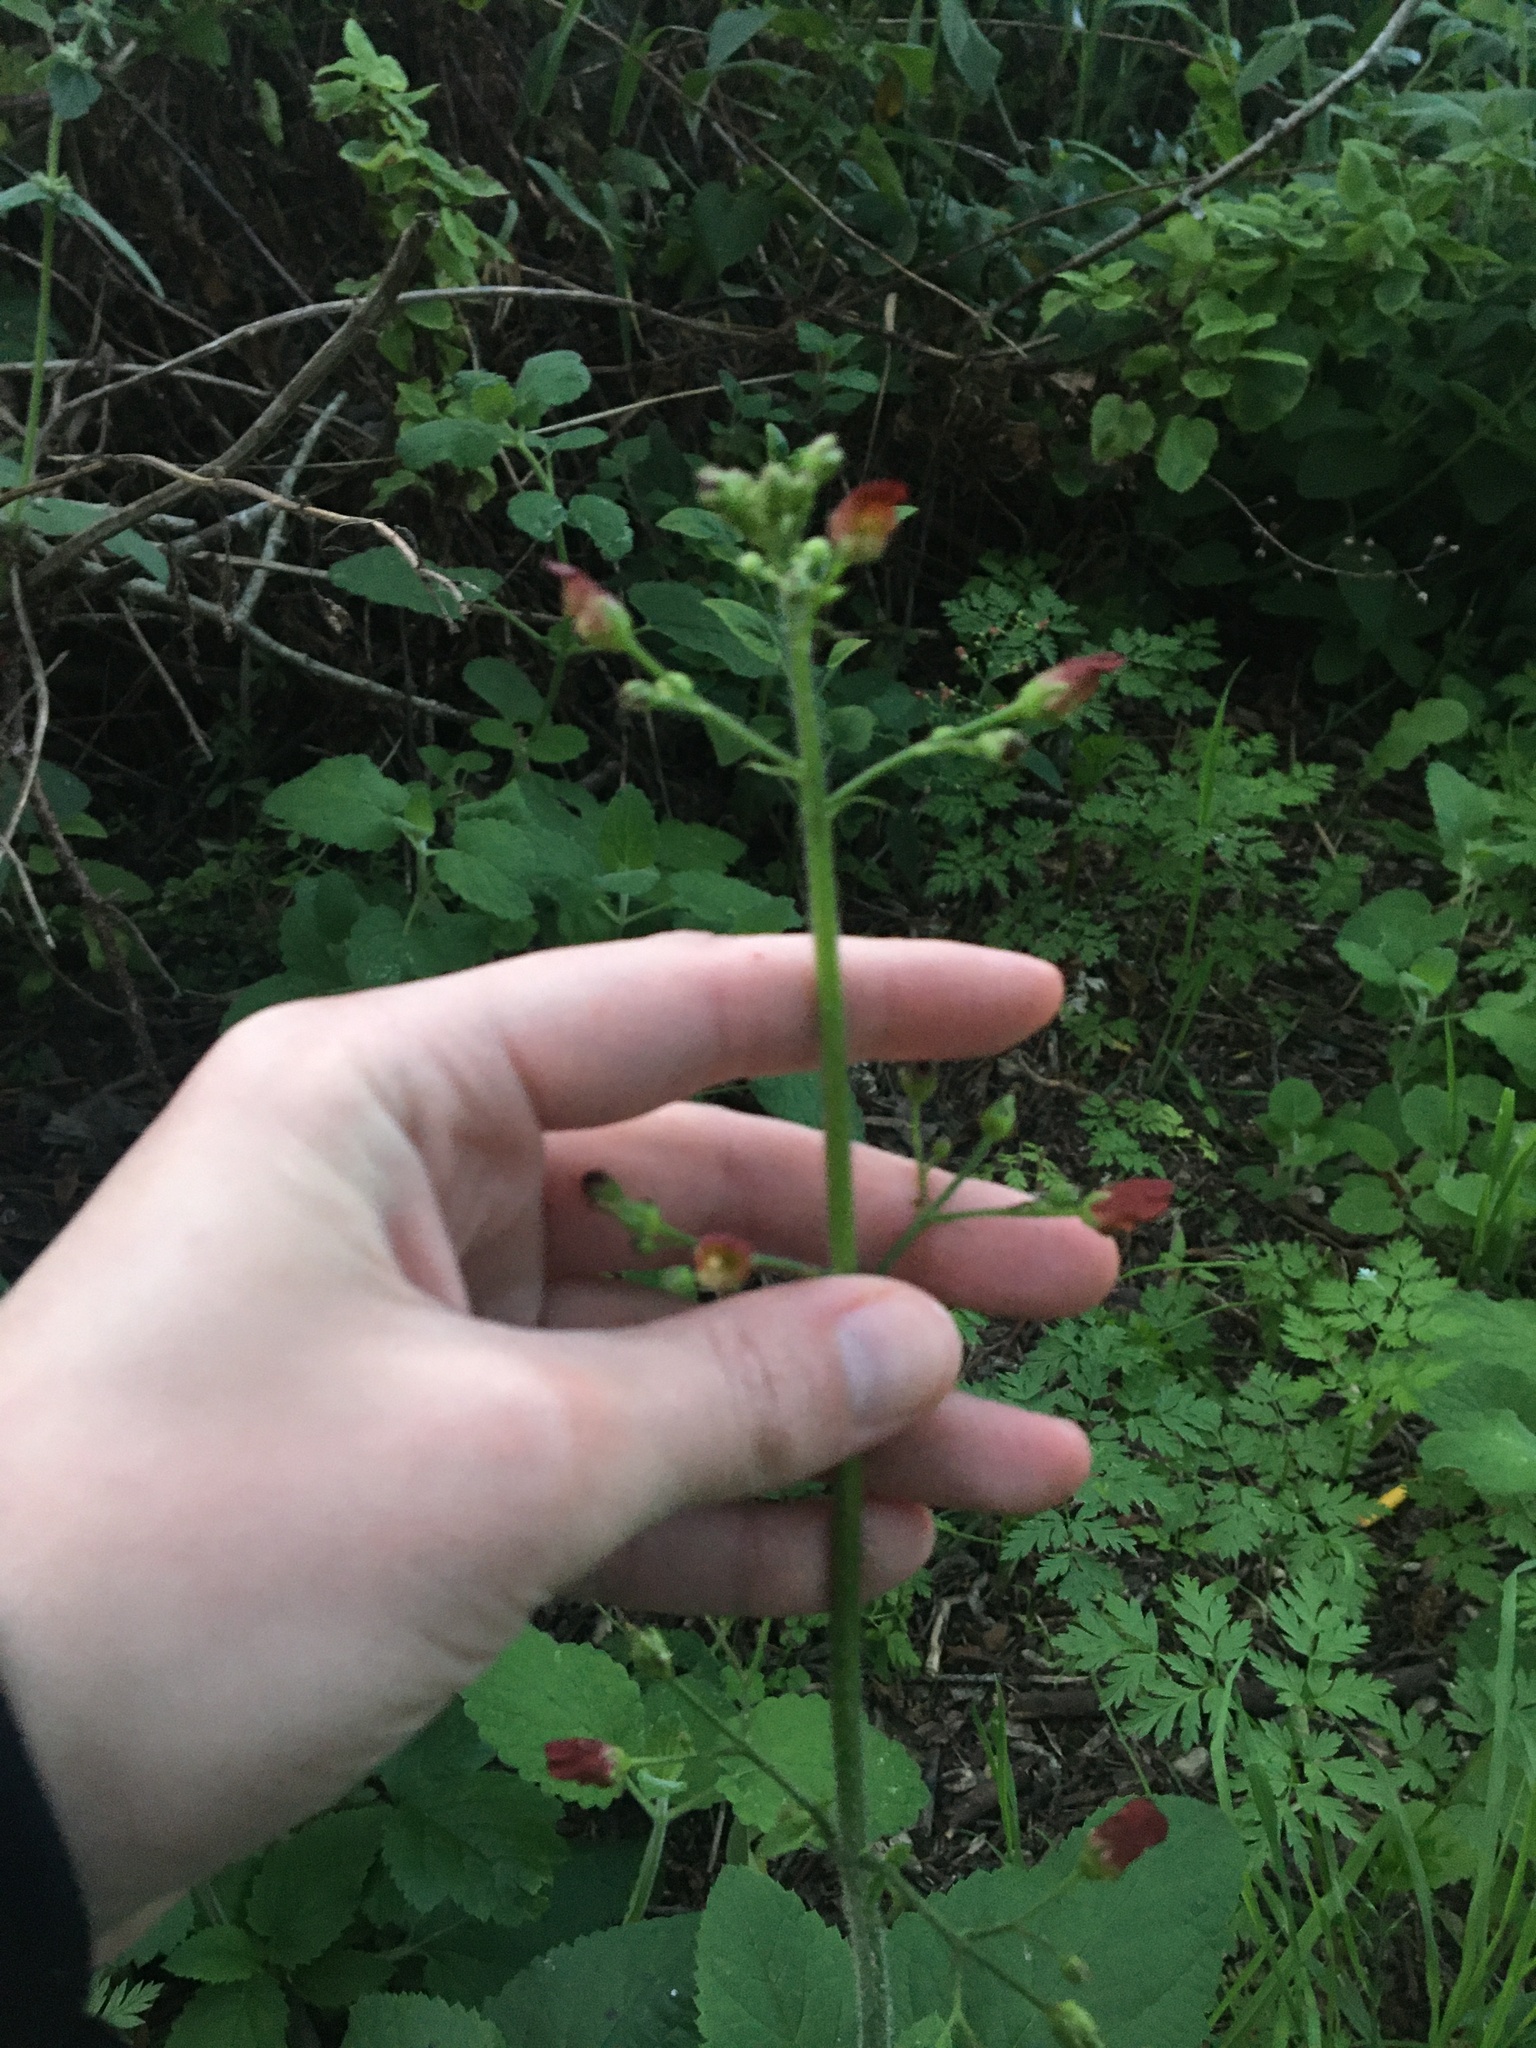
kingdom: Plantae
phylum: Tracheophyta
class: Magnoliopsida
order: Lamiales
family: Scrophulariaceae
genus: Scrophularia
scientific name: Scrophularia californica
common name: California figwort
